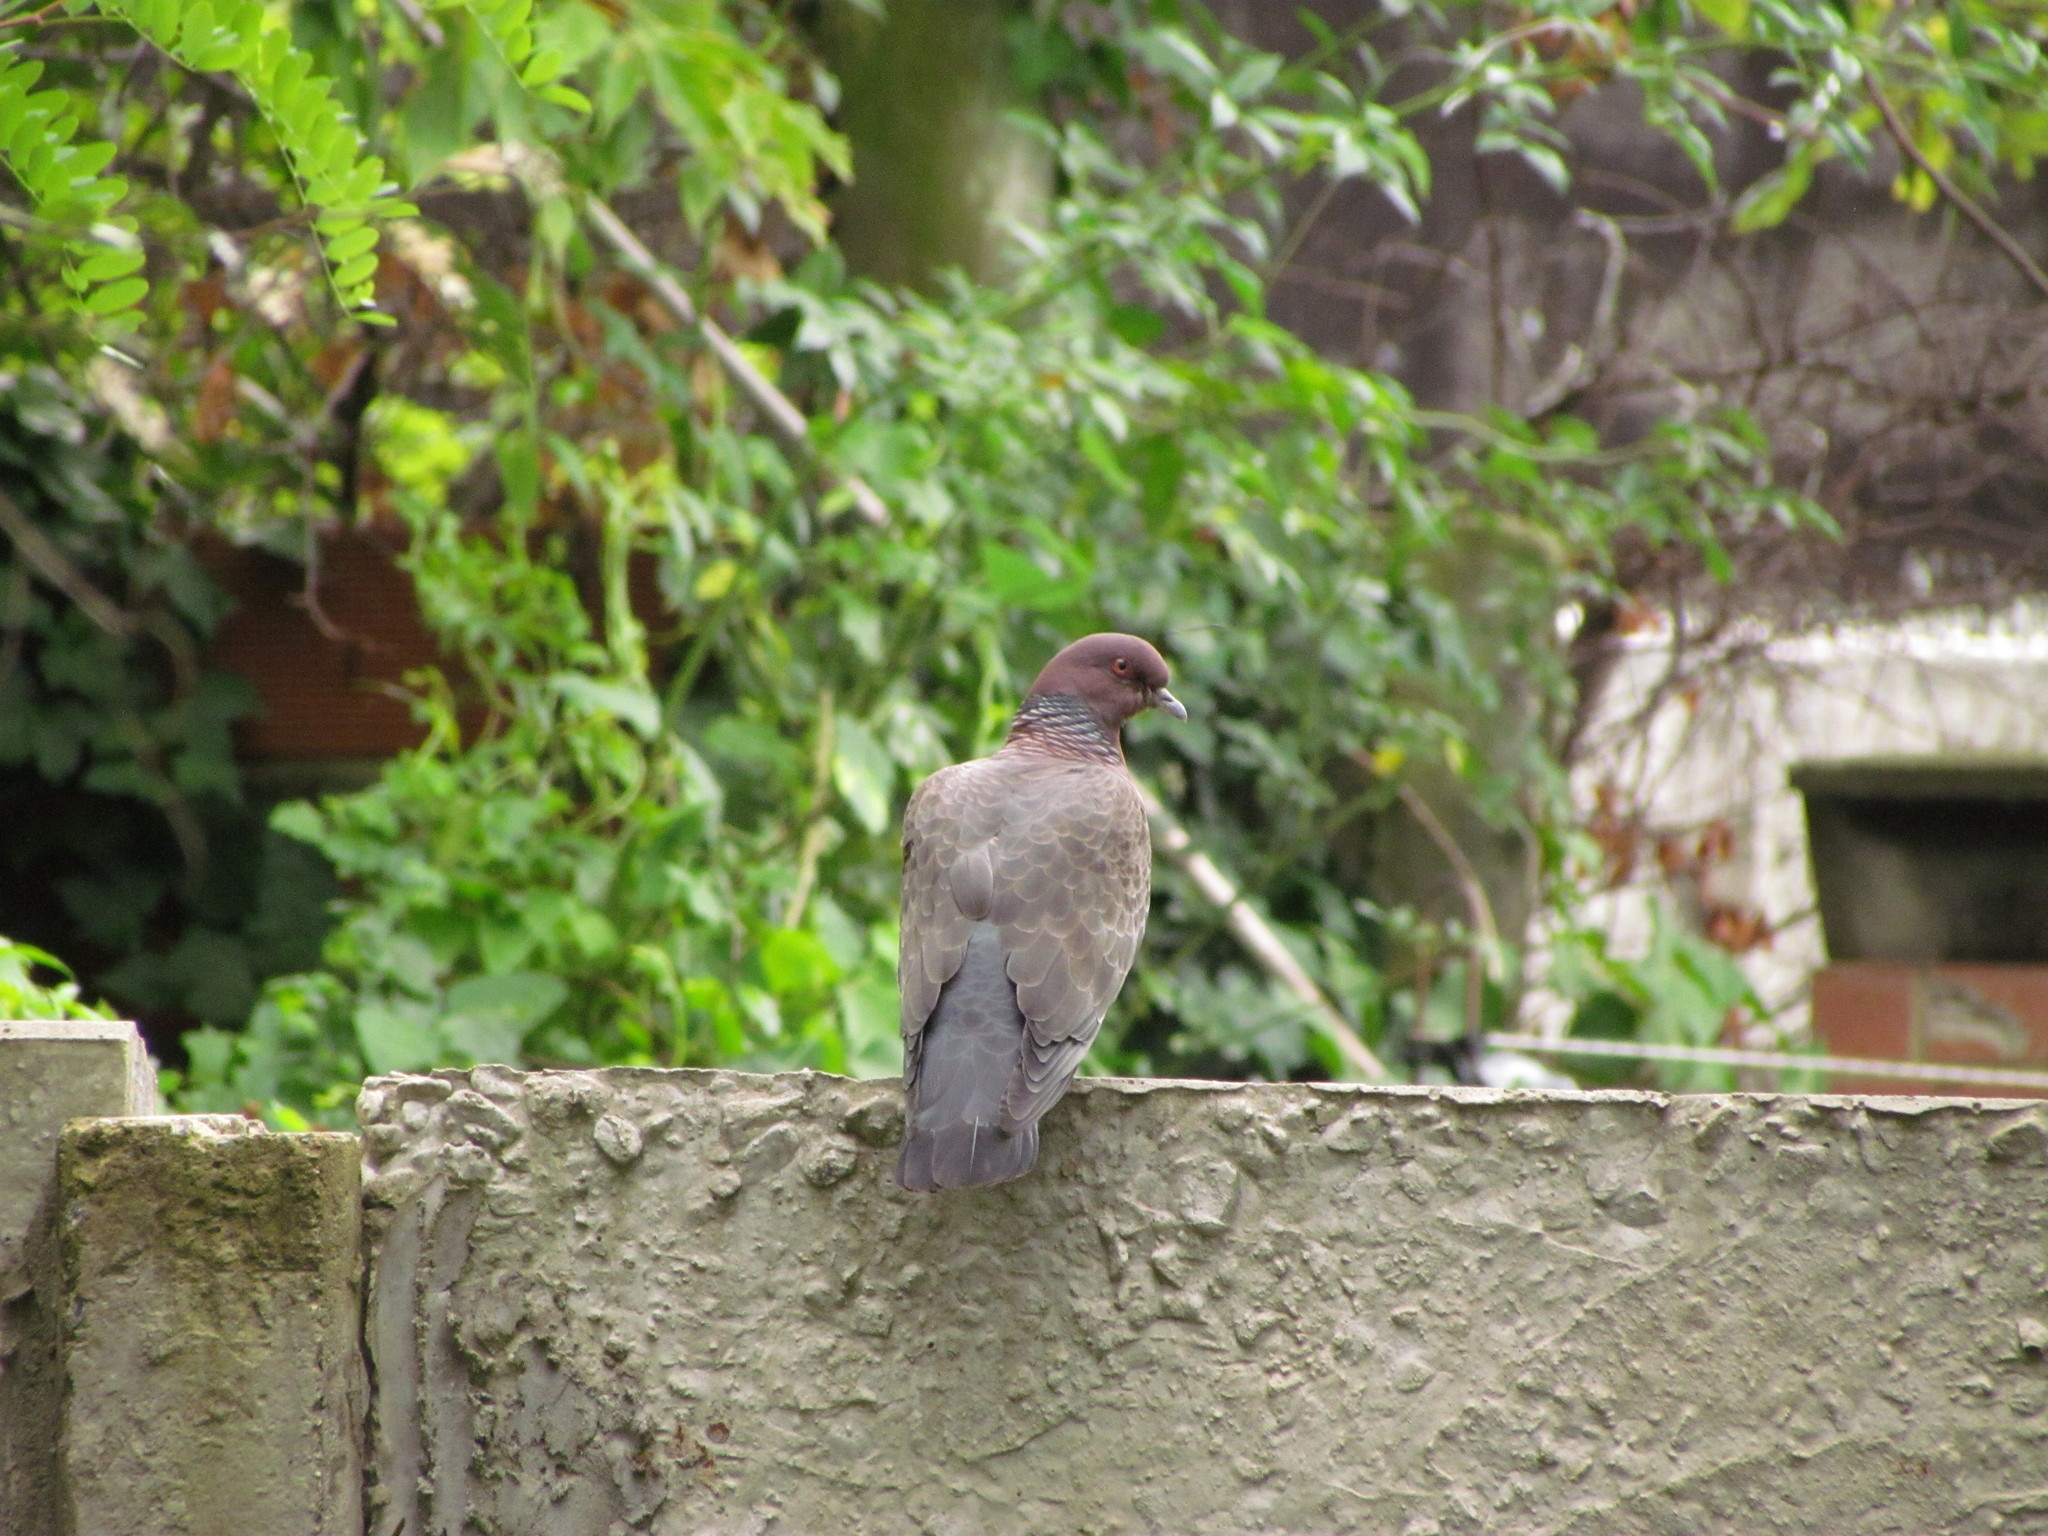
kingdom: Animalia
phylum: Chordata
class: Aves
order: Columbiformes
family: Columbidae
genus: Patagioenas
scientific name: Patagioenas picazuro
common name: Picazuro pigeon
